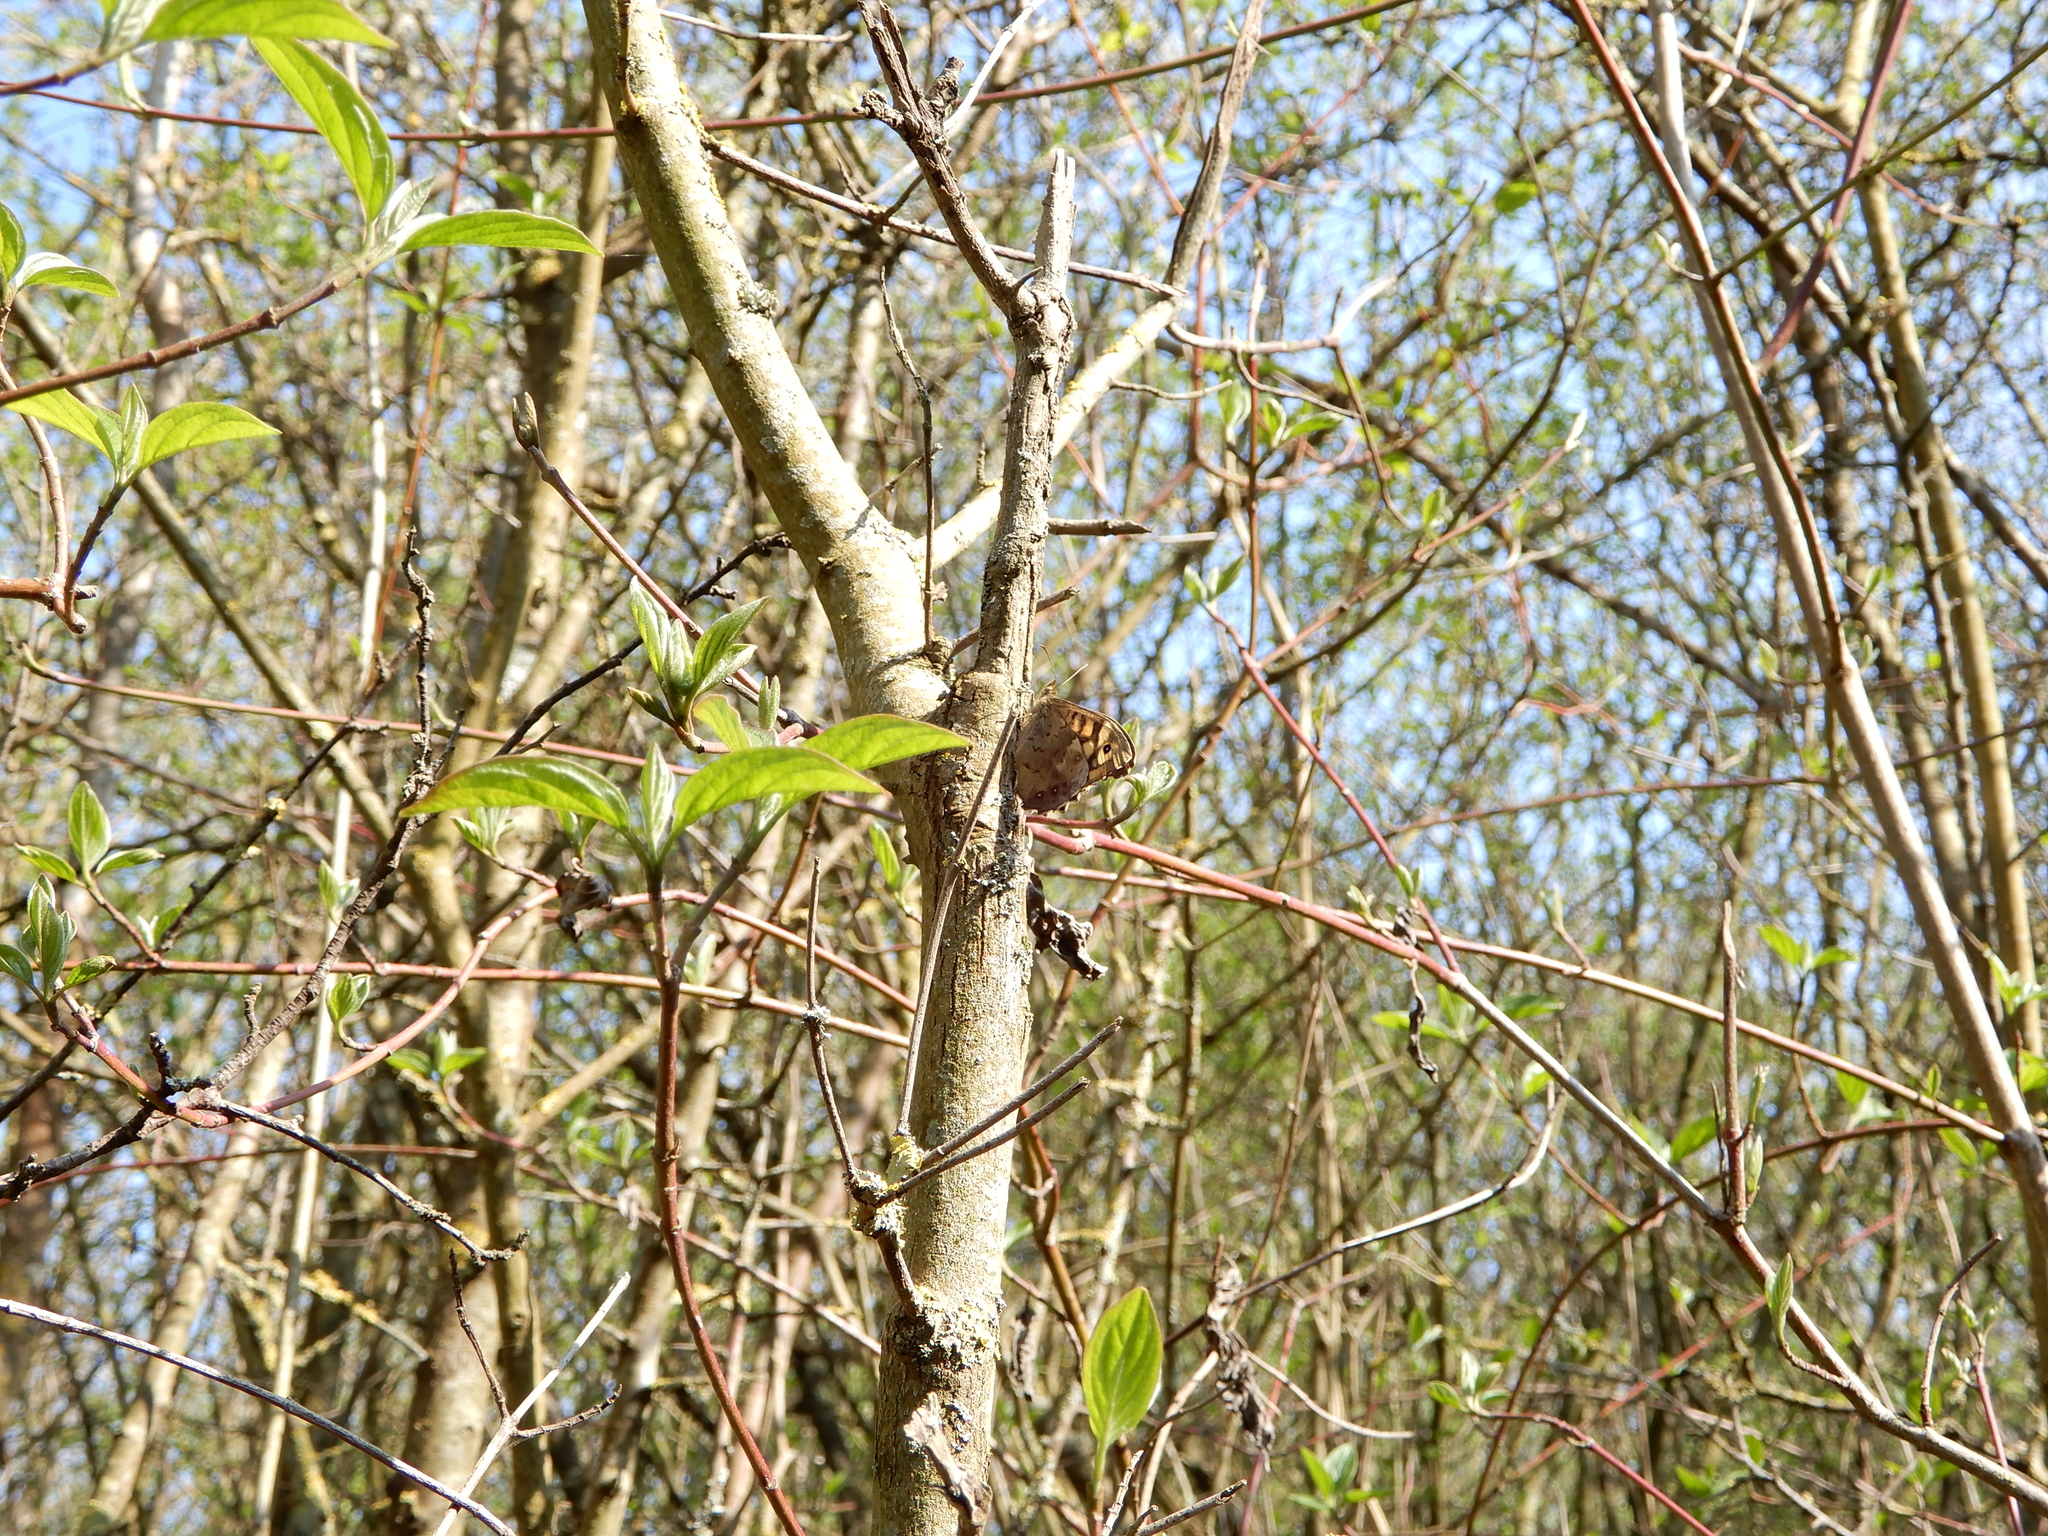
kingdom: Animalia
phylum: Arthropoda
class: Insecta
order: Lepidoptera
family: Nymphalidae
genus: Pararge
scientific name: Pararge aegeria
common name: Speckled wood
